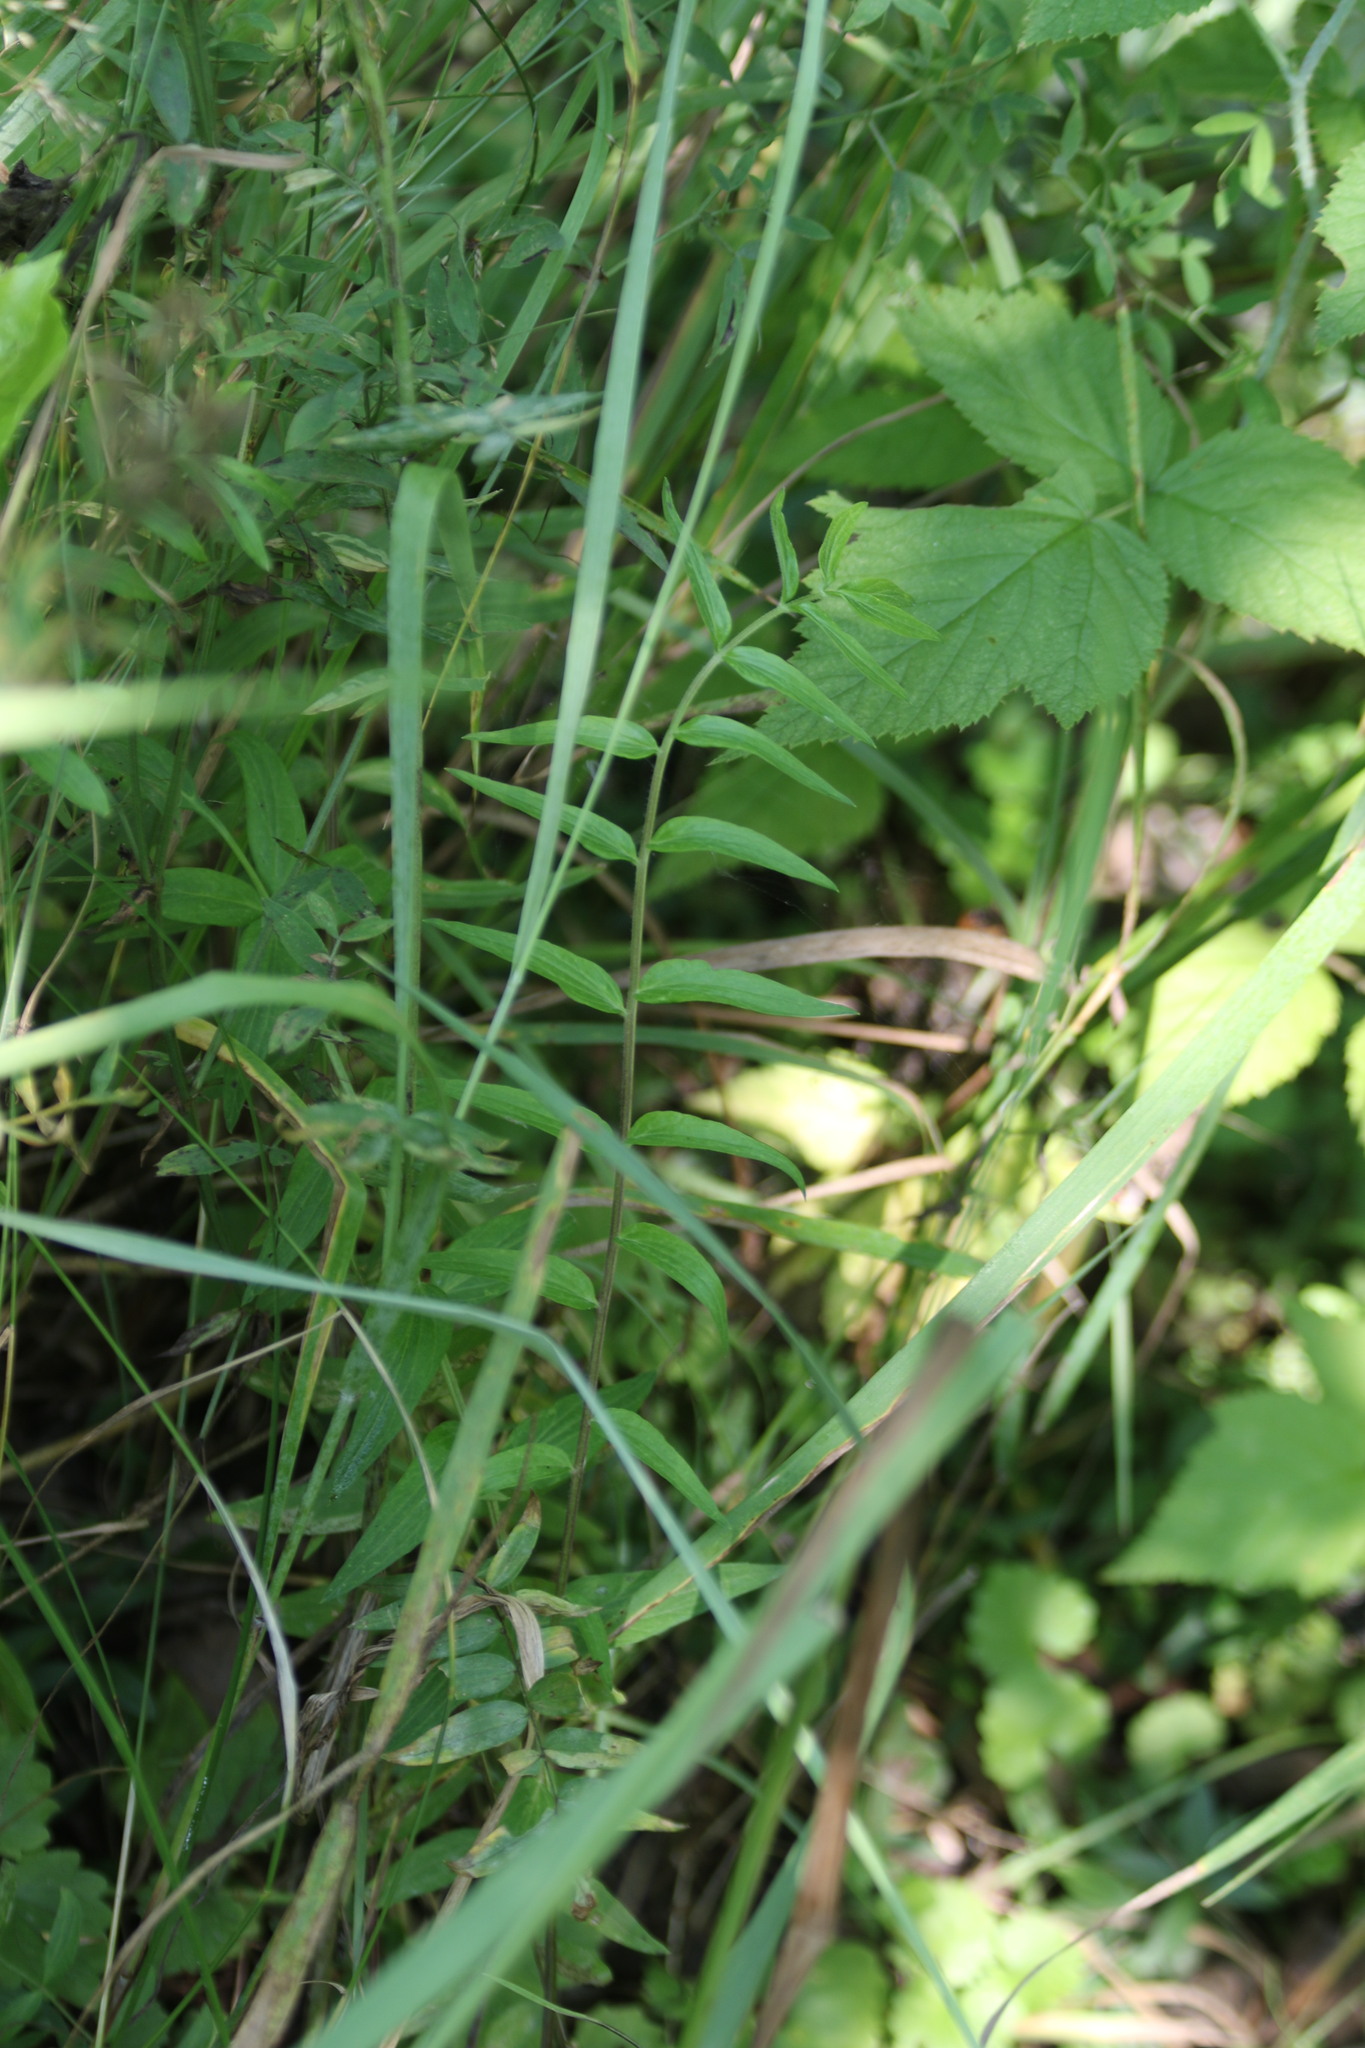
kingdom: Plantae
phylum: Tracheophyta
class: Magnoliopsida
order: Ericales
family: Polemoniaceae
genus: Polemonium
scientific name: Polemonium caeruleum
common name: Jacob's-ladder
